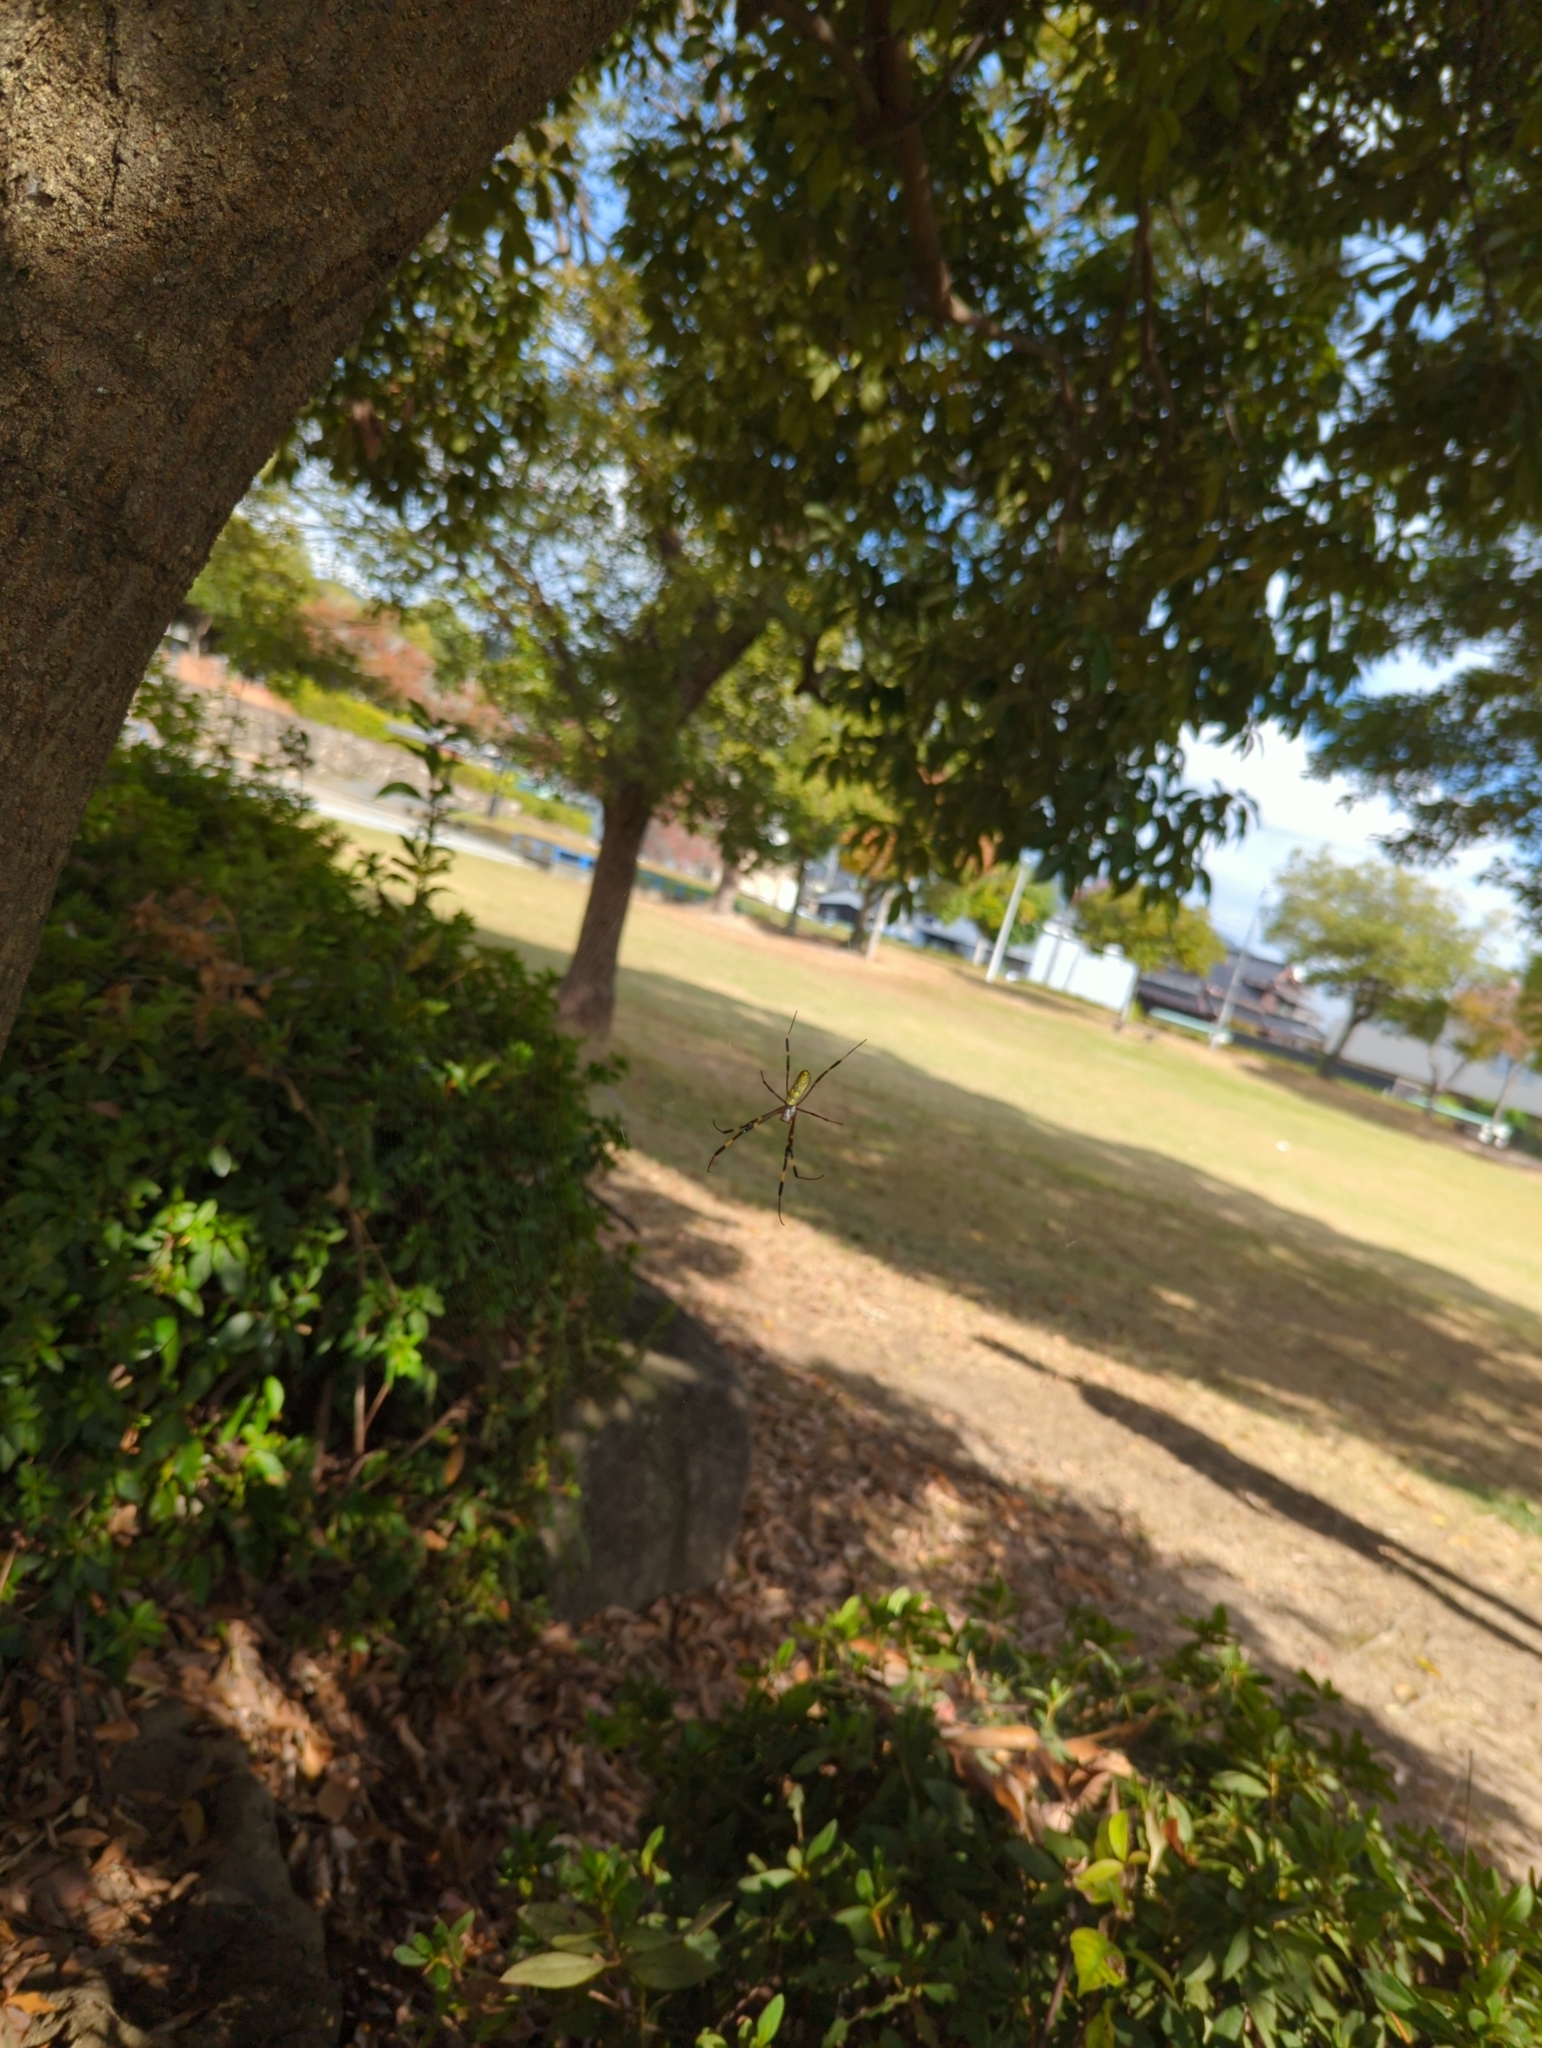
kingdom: Animalia
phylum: Arthropoda
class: Arachnida
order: Araneae
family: Araneidae
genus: Trichonephila
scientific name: Trichonephila clavata
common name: Jorō spider
